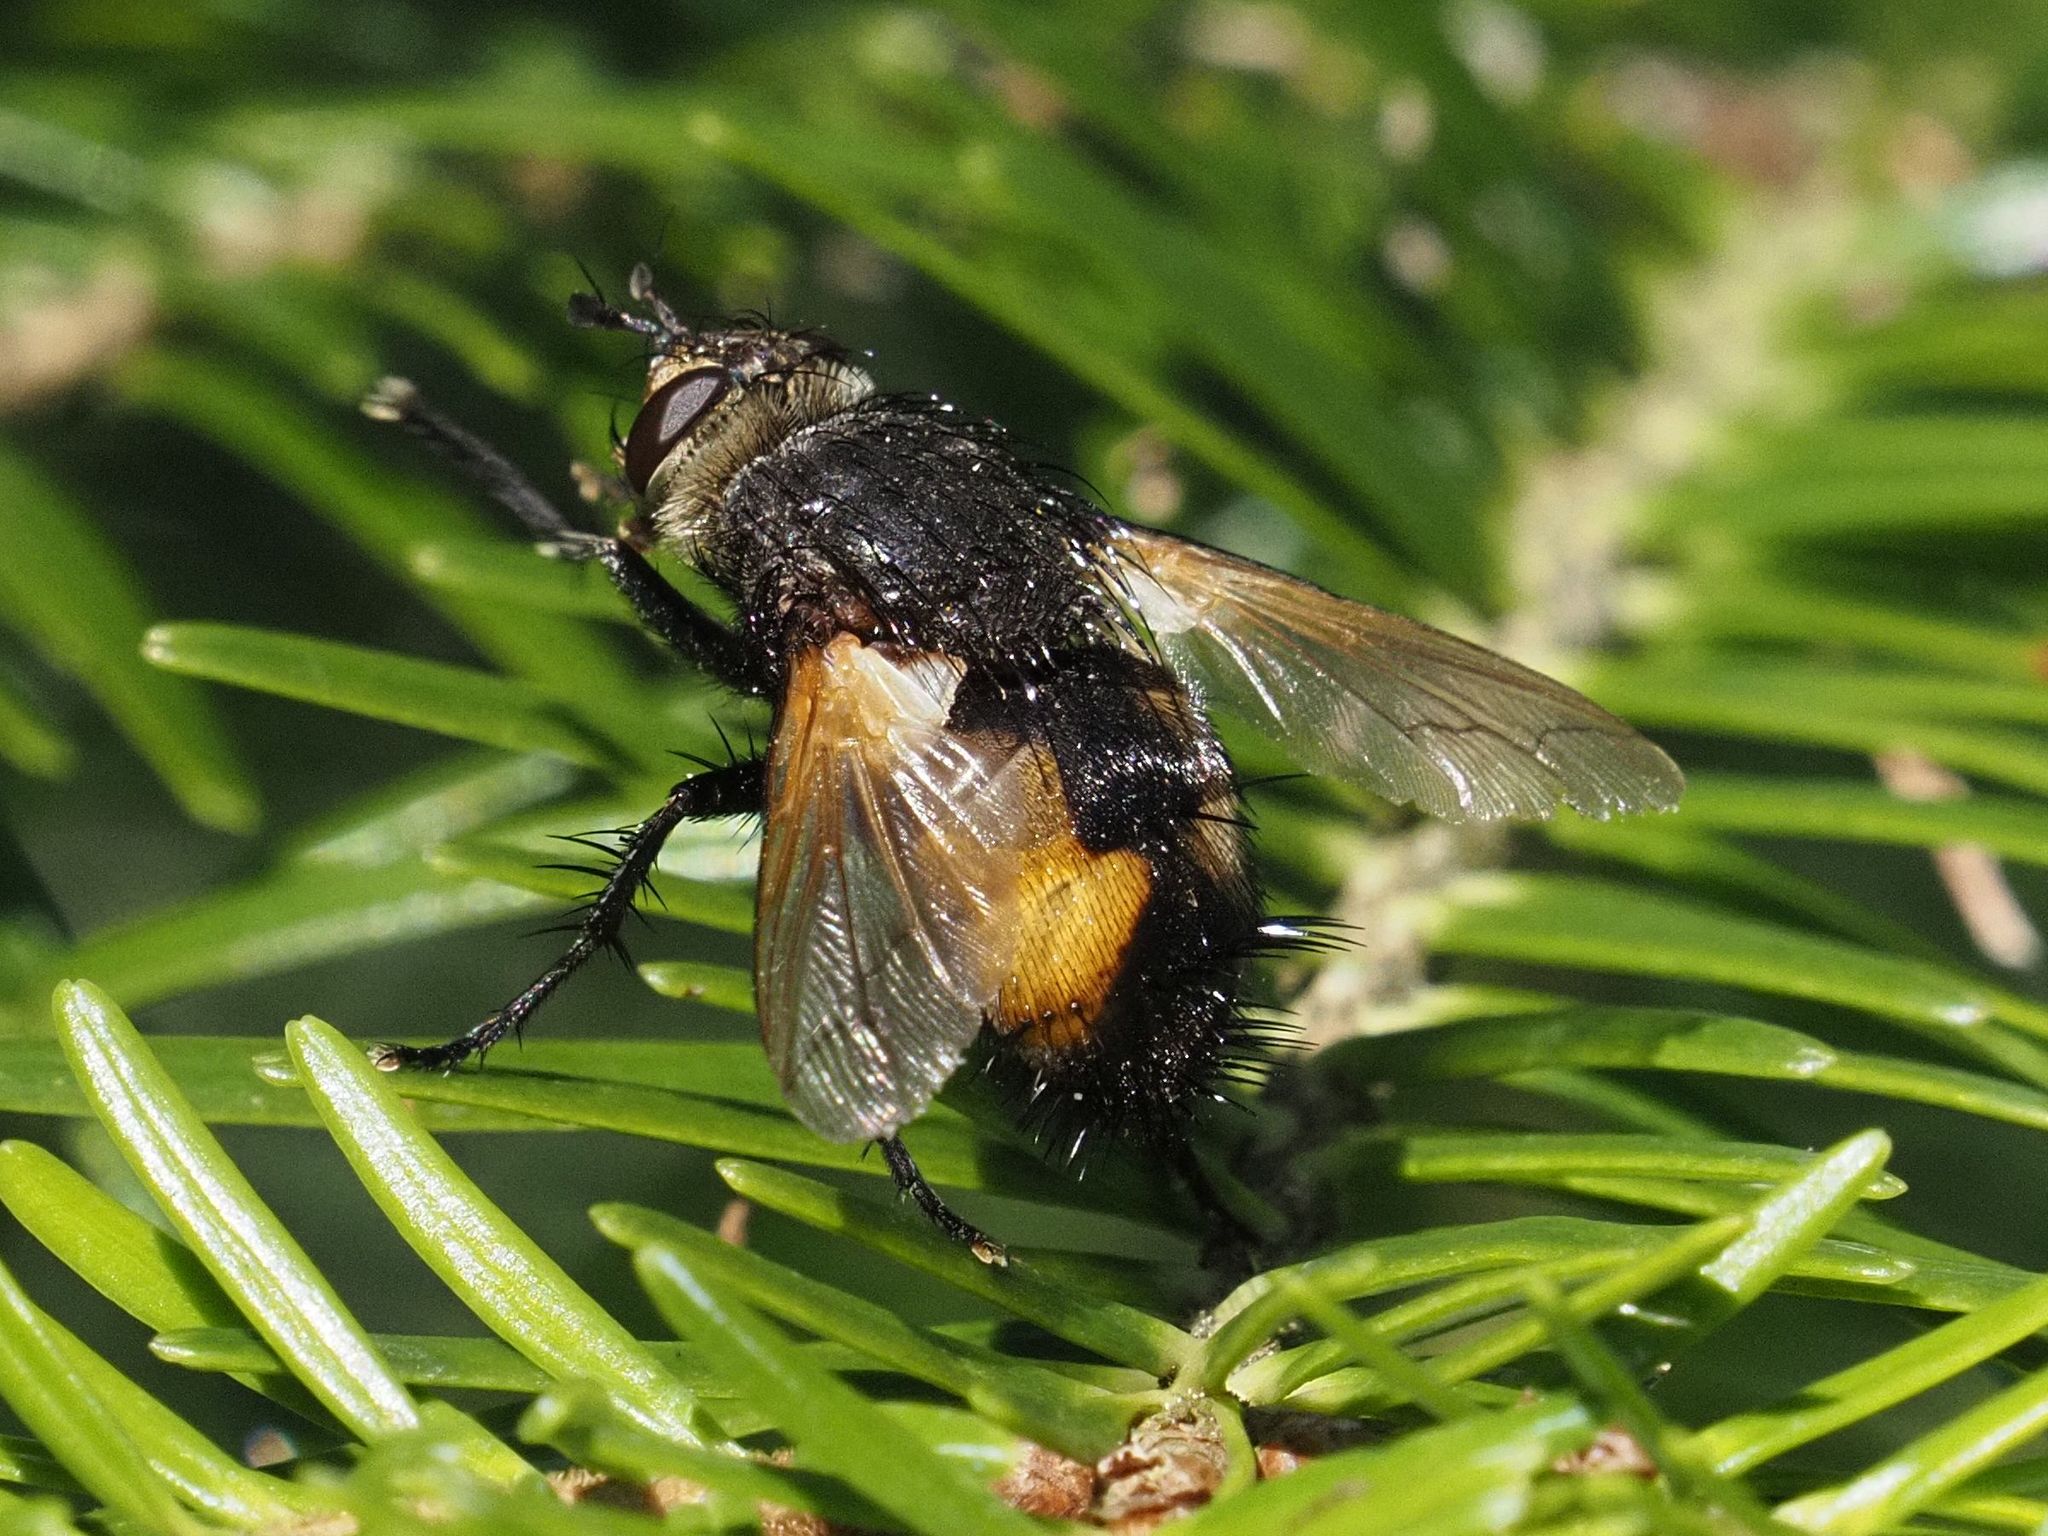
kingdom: Animalia
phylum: Arthropoda
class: Insecta
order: Diptera
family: Tachinidae
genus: Nowickia
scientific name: Nowickia ferox
